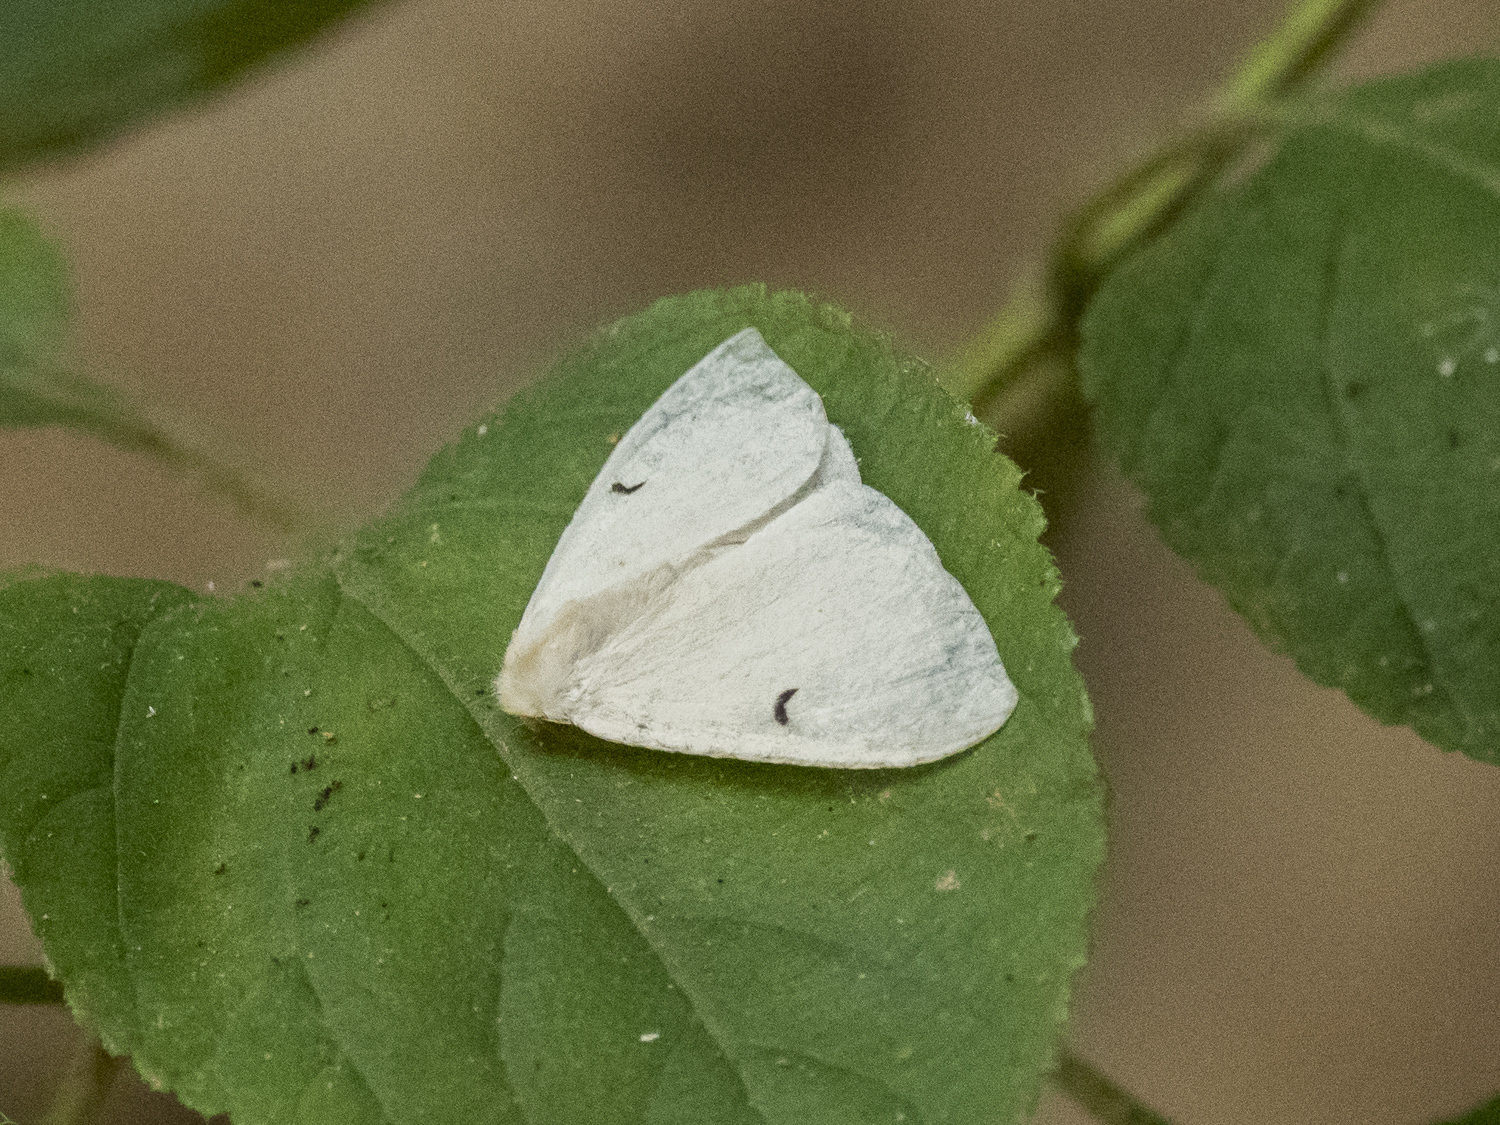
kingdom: Animalia
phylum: Arthropoda
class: Insecta
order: Lepidoptera
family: Erebidae
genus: Arctornis
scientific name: Arctornis comma
